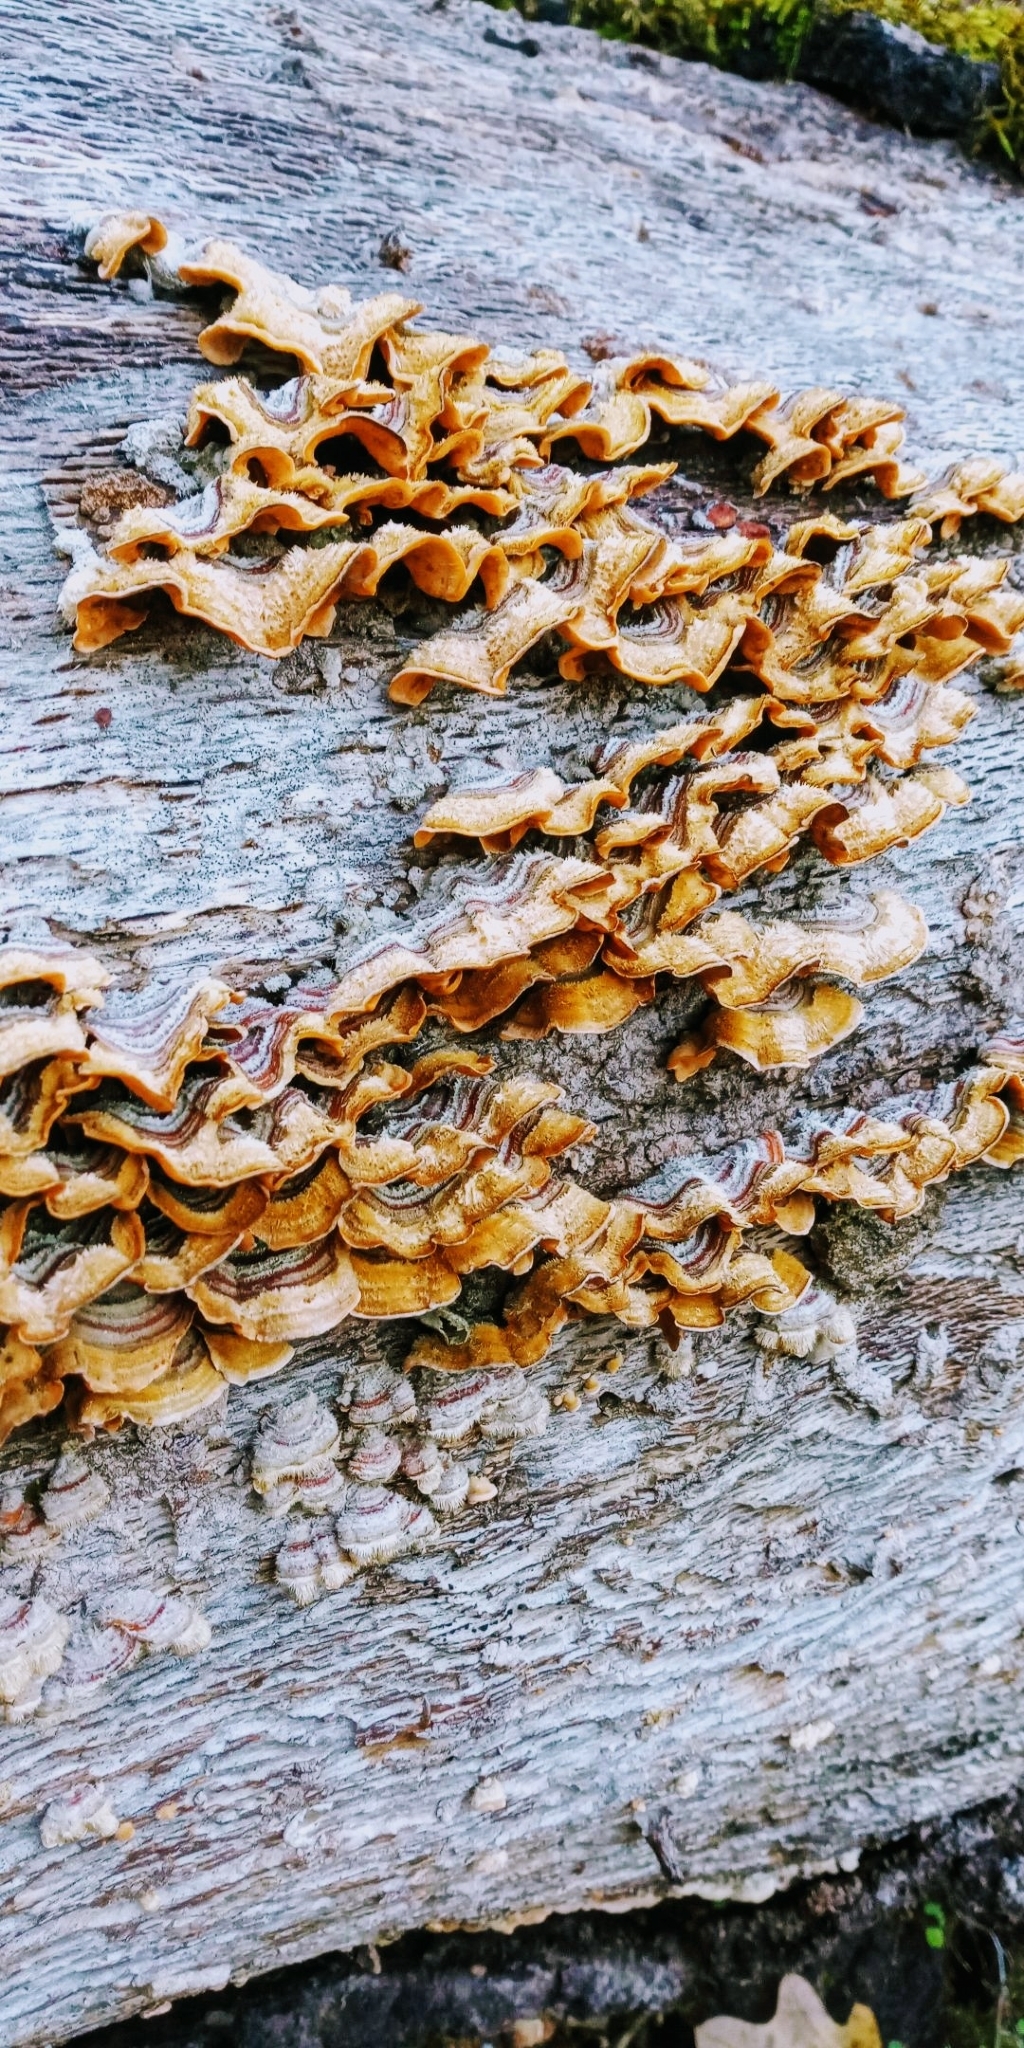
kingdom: Fungi
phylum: Basidiomycota
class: Agaricomycetes
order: Russulales
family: Stereaceae
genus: Stereum
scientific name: Stereum hirsutum
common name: Hairy curtain crust
